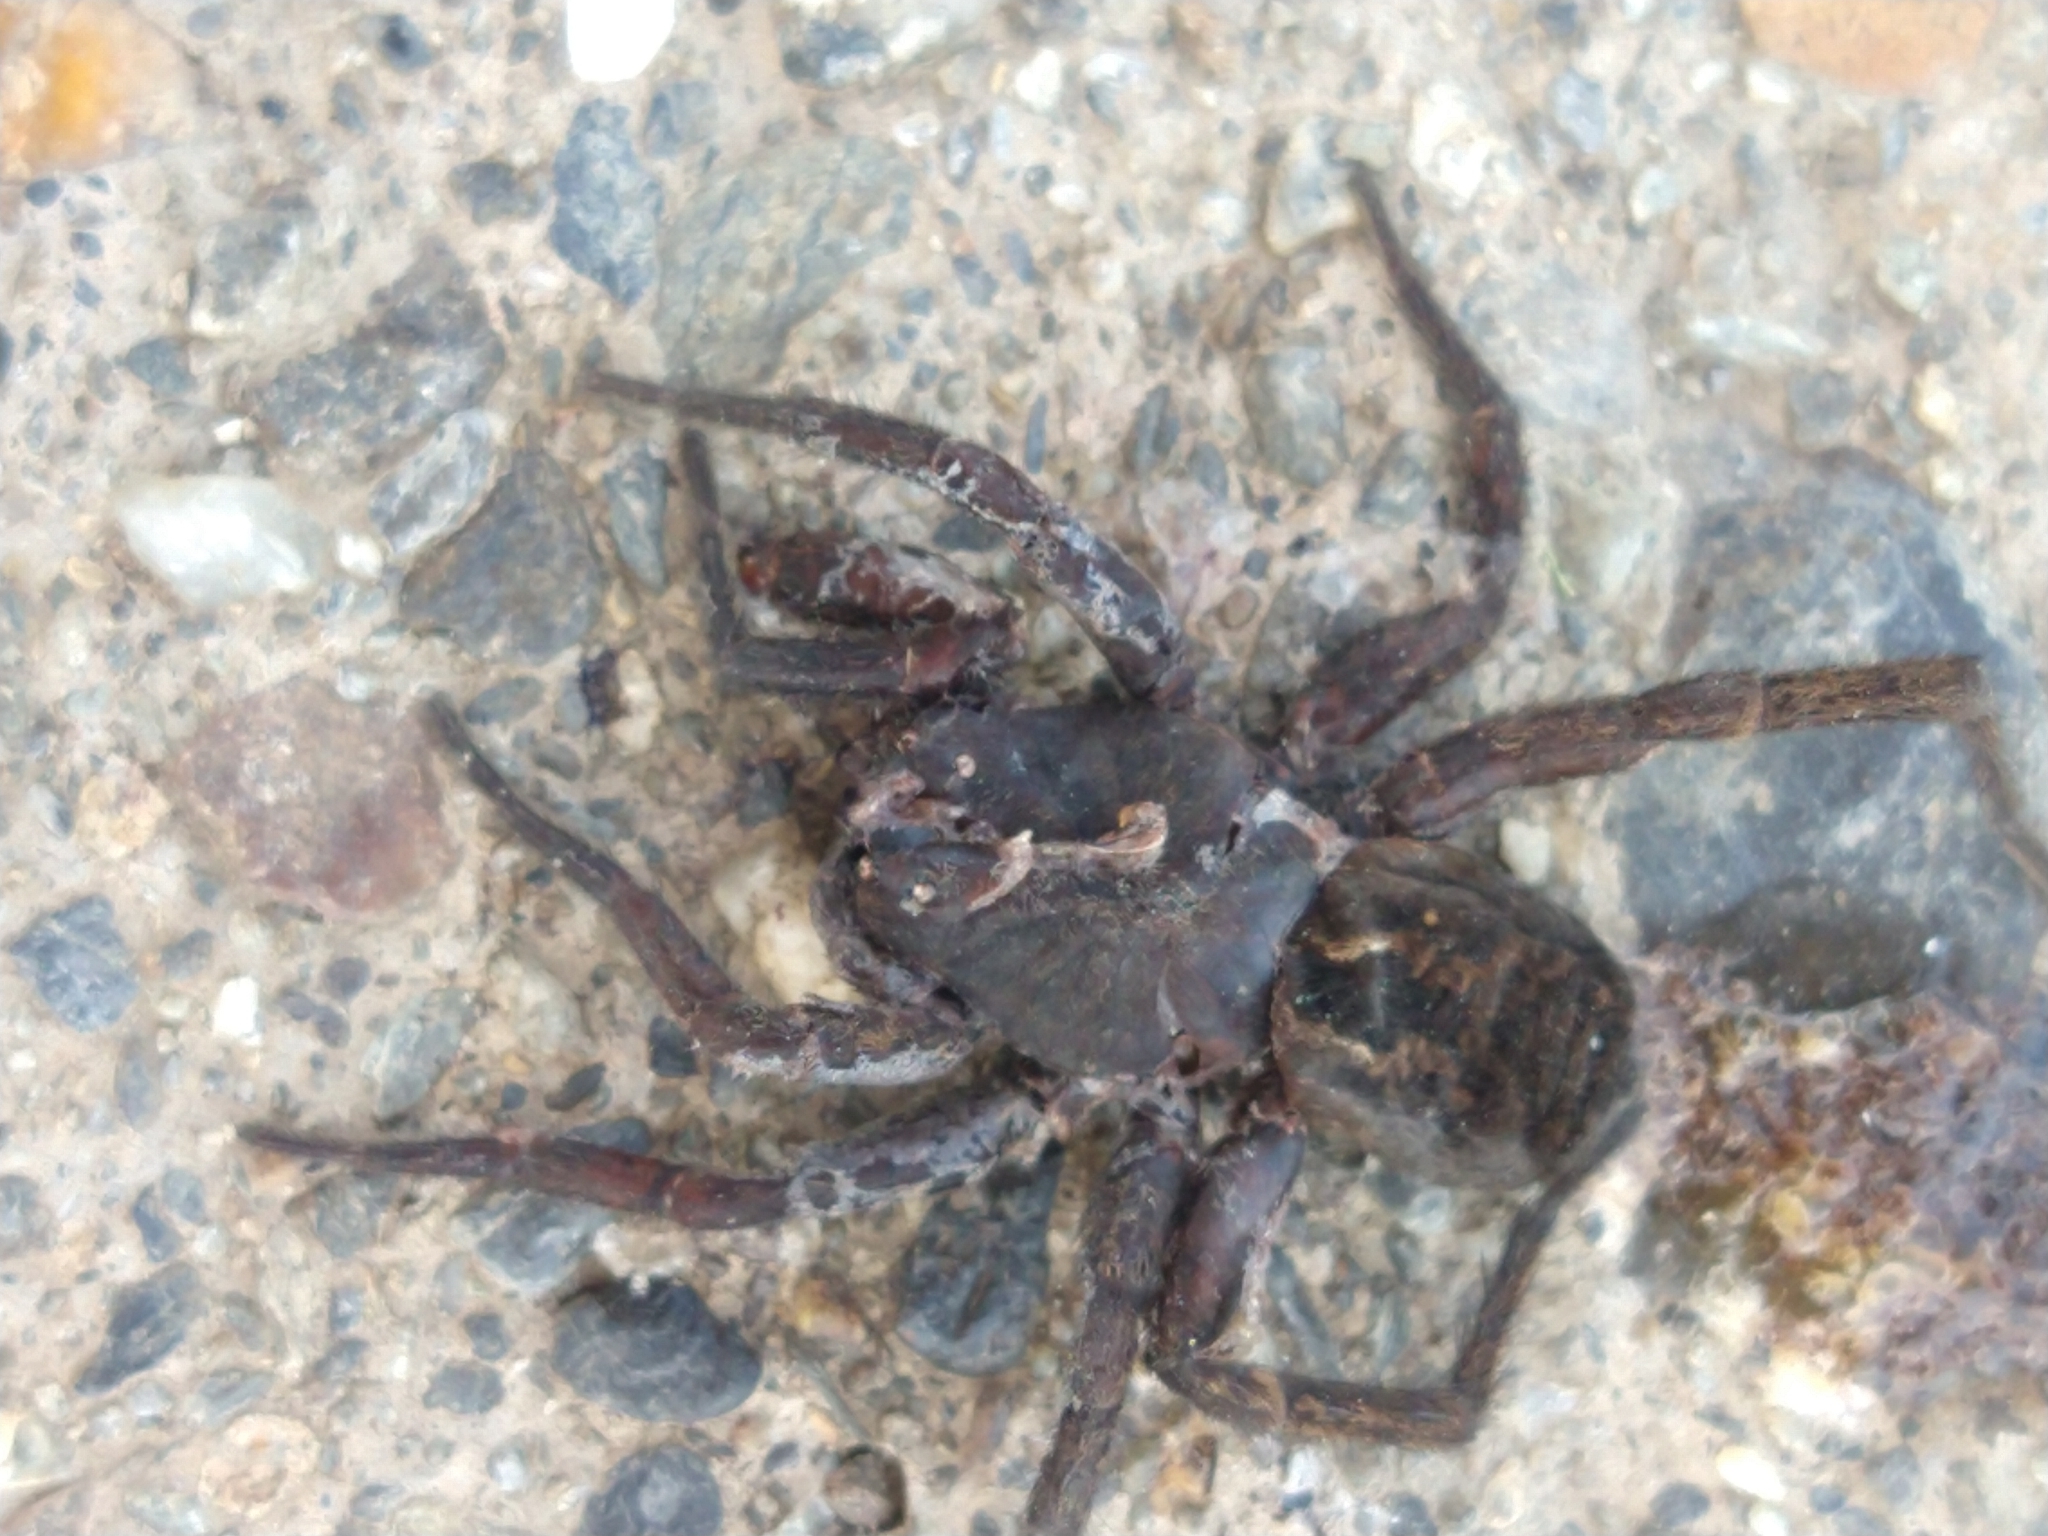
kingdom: Animalia
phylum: Arthropoda
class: Arachnida
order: Araneae
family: Lycosidae
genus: Lycosa
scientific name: Lycosa australis
